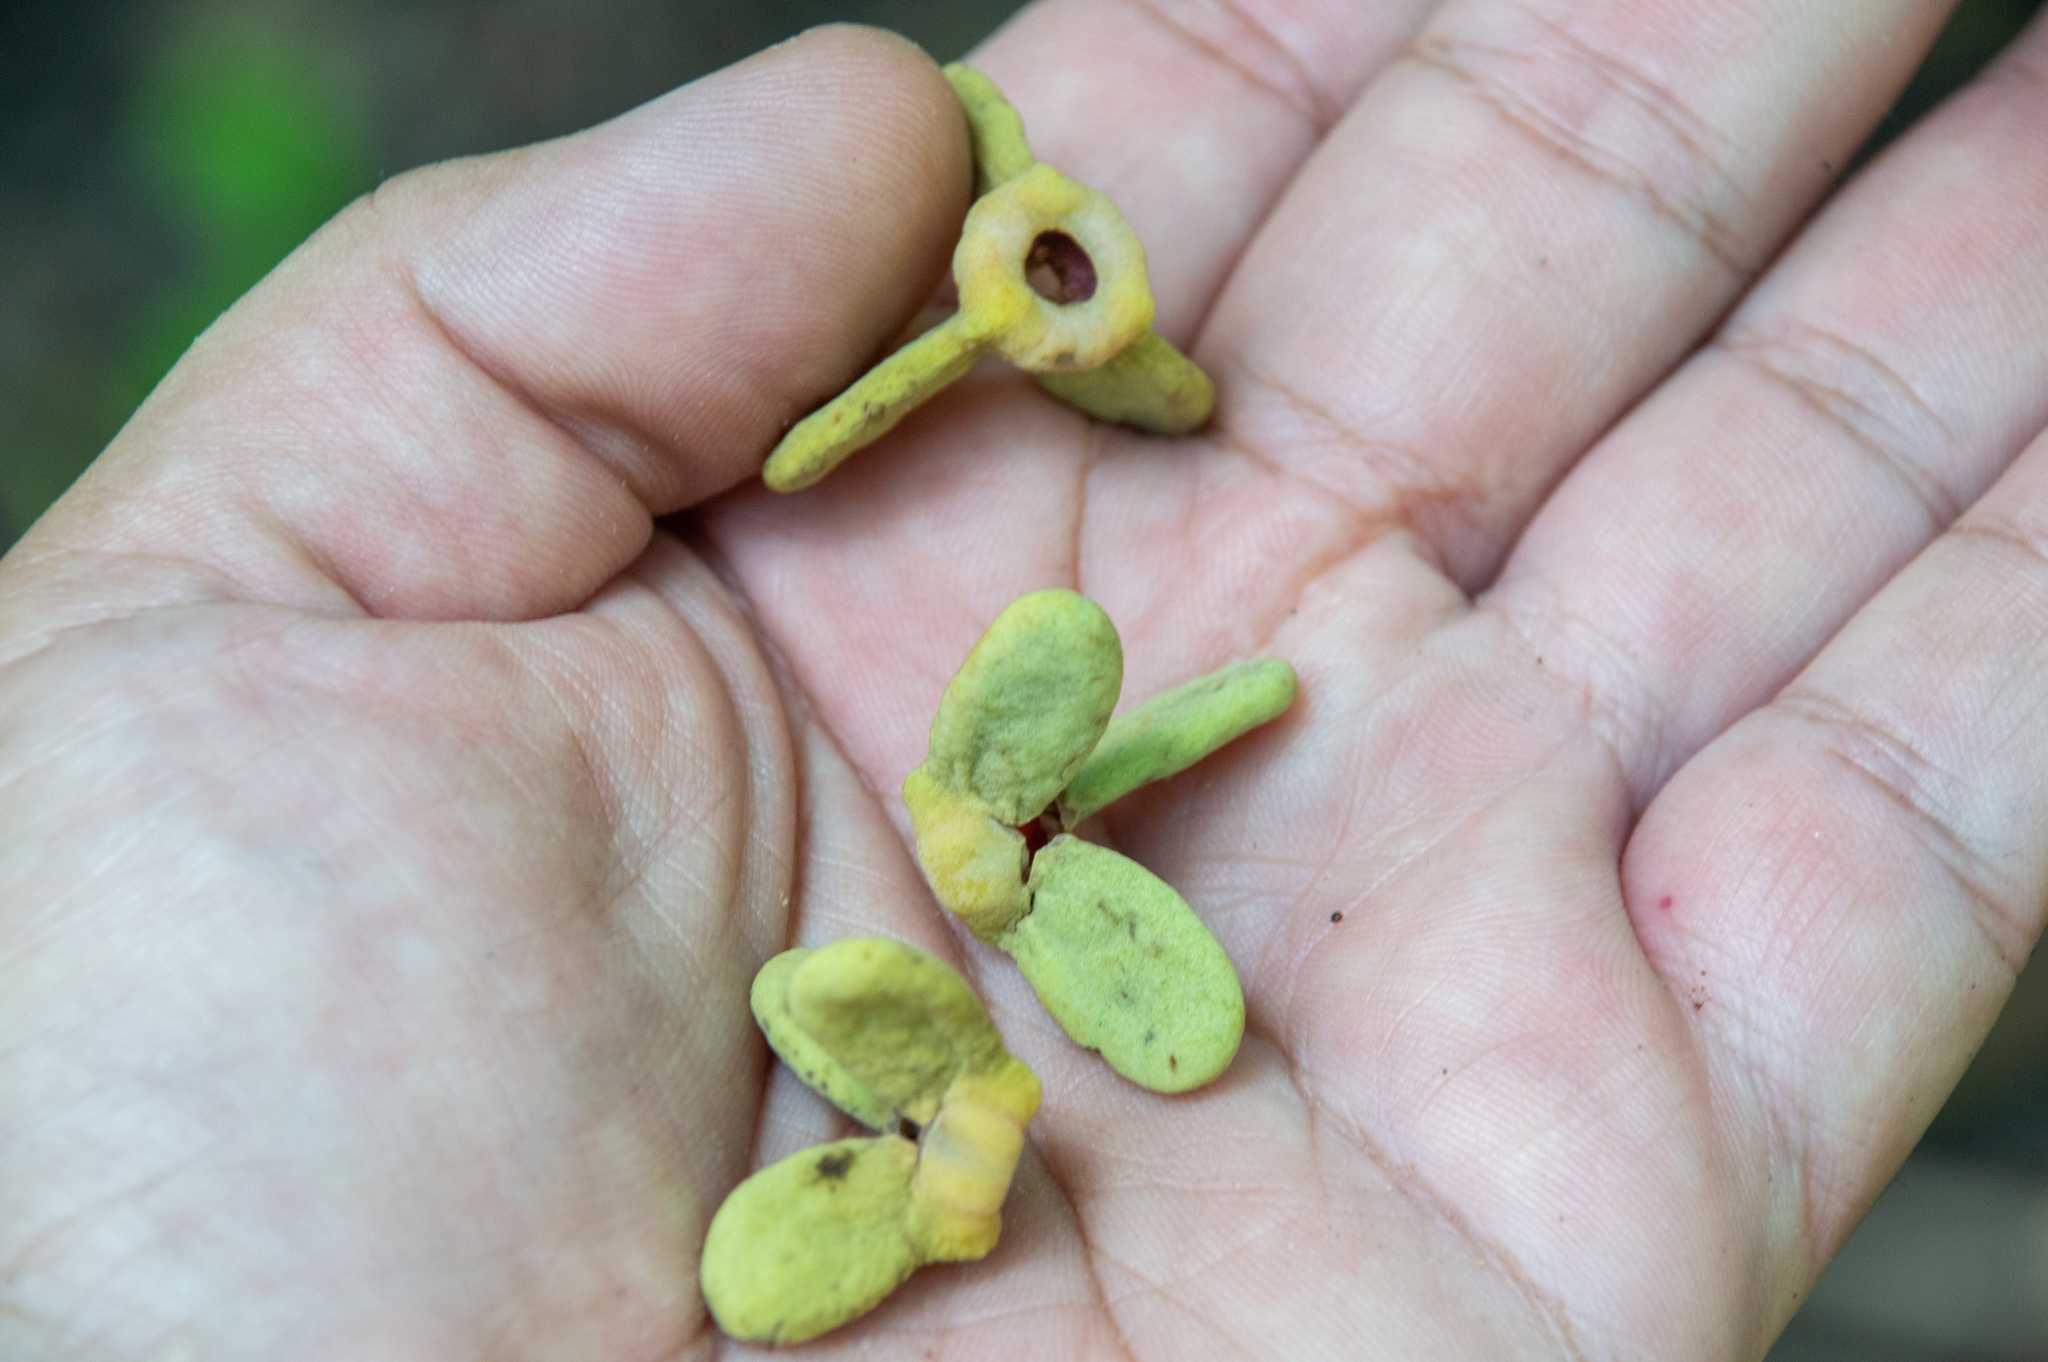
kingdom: Plantae
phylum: Tracheophyta
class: Magnoliopsida
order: Magnoliales
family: Annonaceae
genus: Annona
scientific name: Annona exsucca
